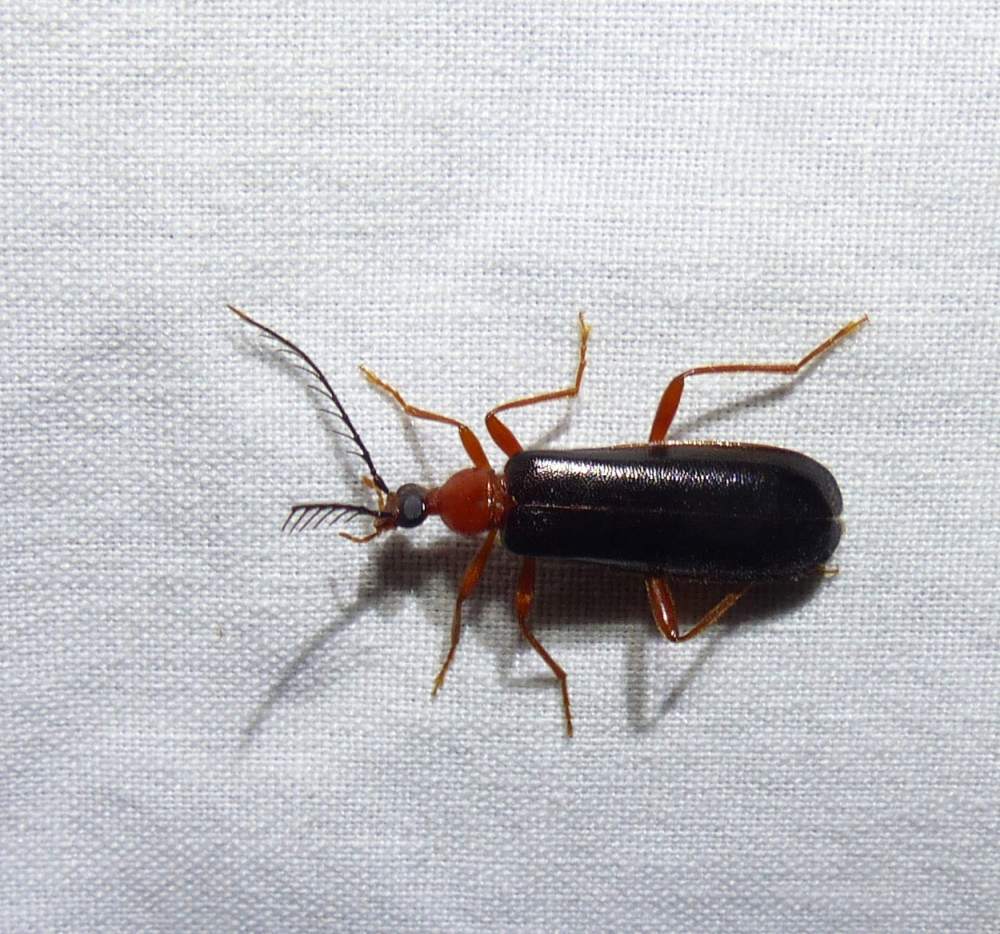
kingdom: Animalia
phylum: Arthropoda
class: Insecta
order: Coleoptera
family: Pyrochroidae
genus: Dendroides
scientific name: Dendroides canadensis
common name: Canada fire-colored beetle
